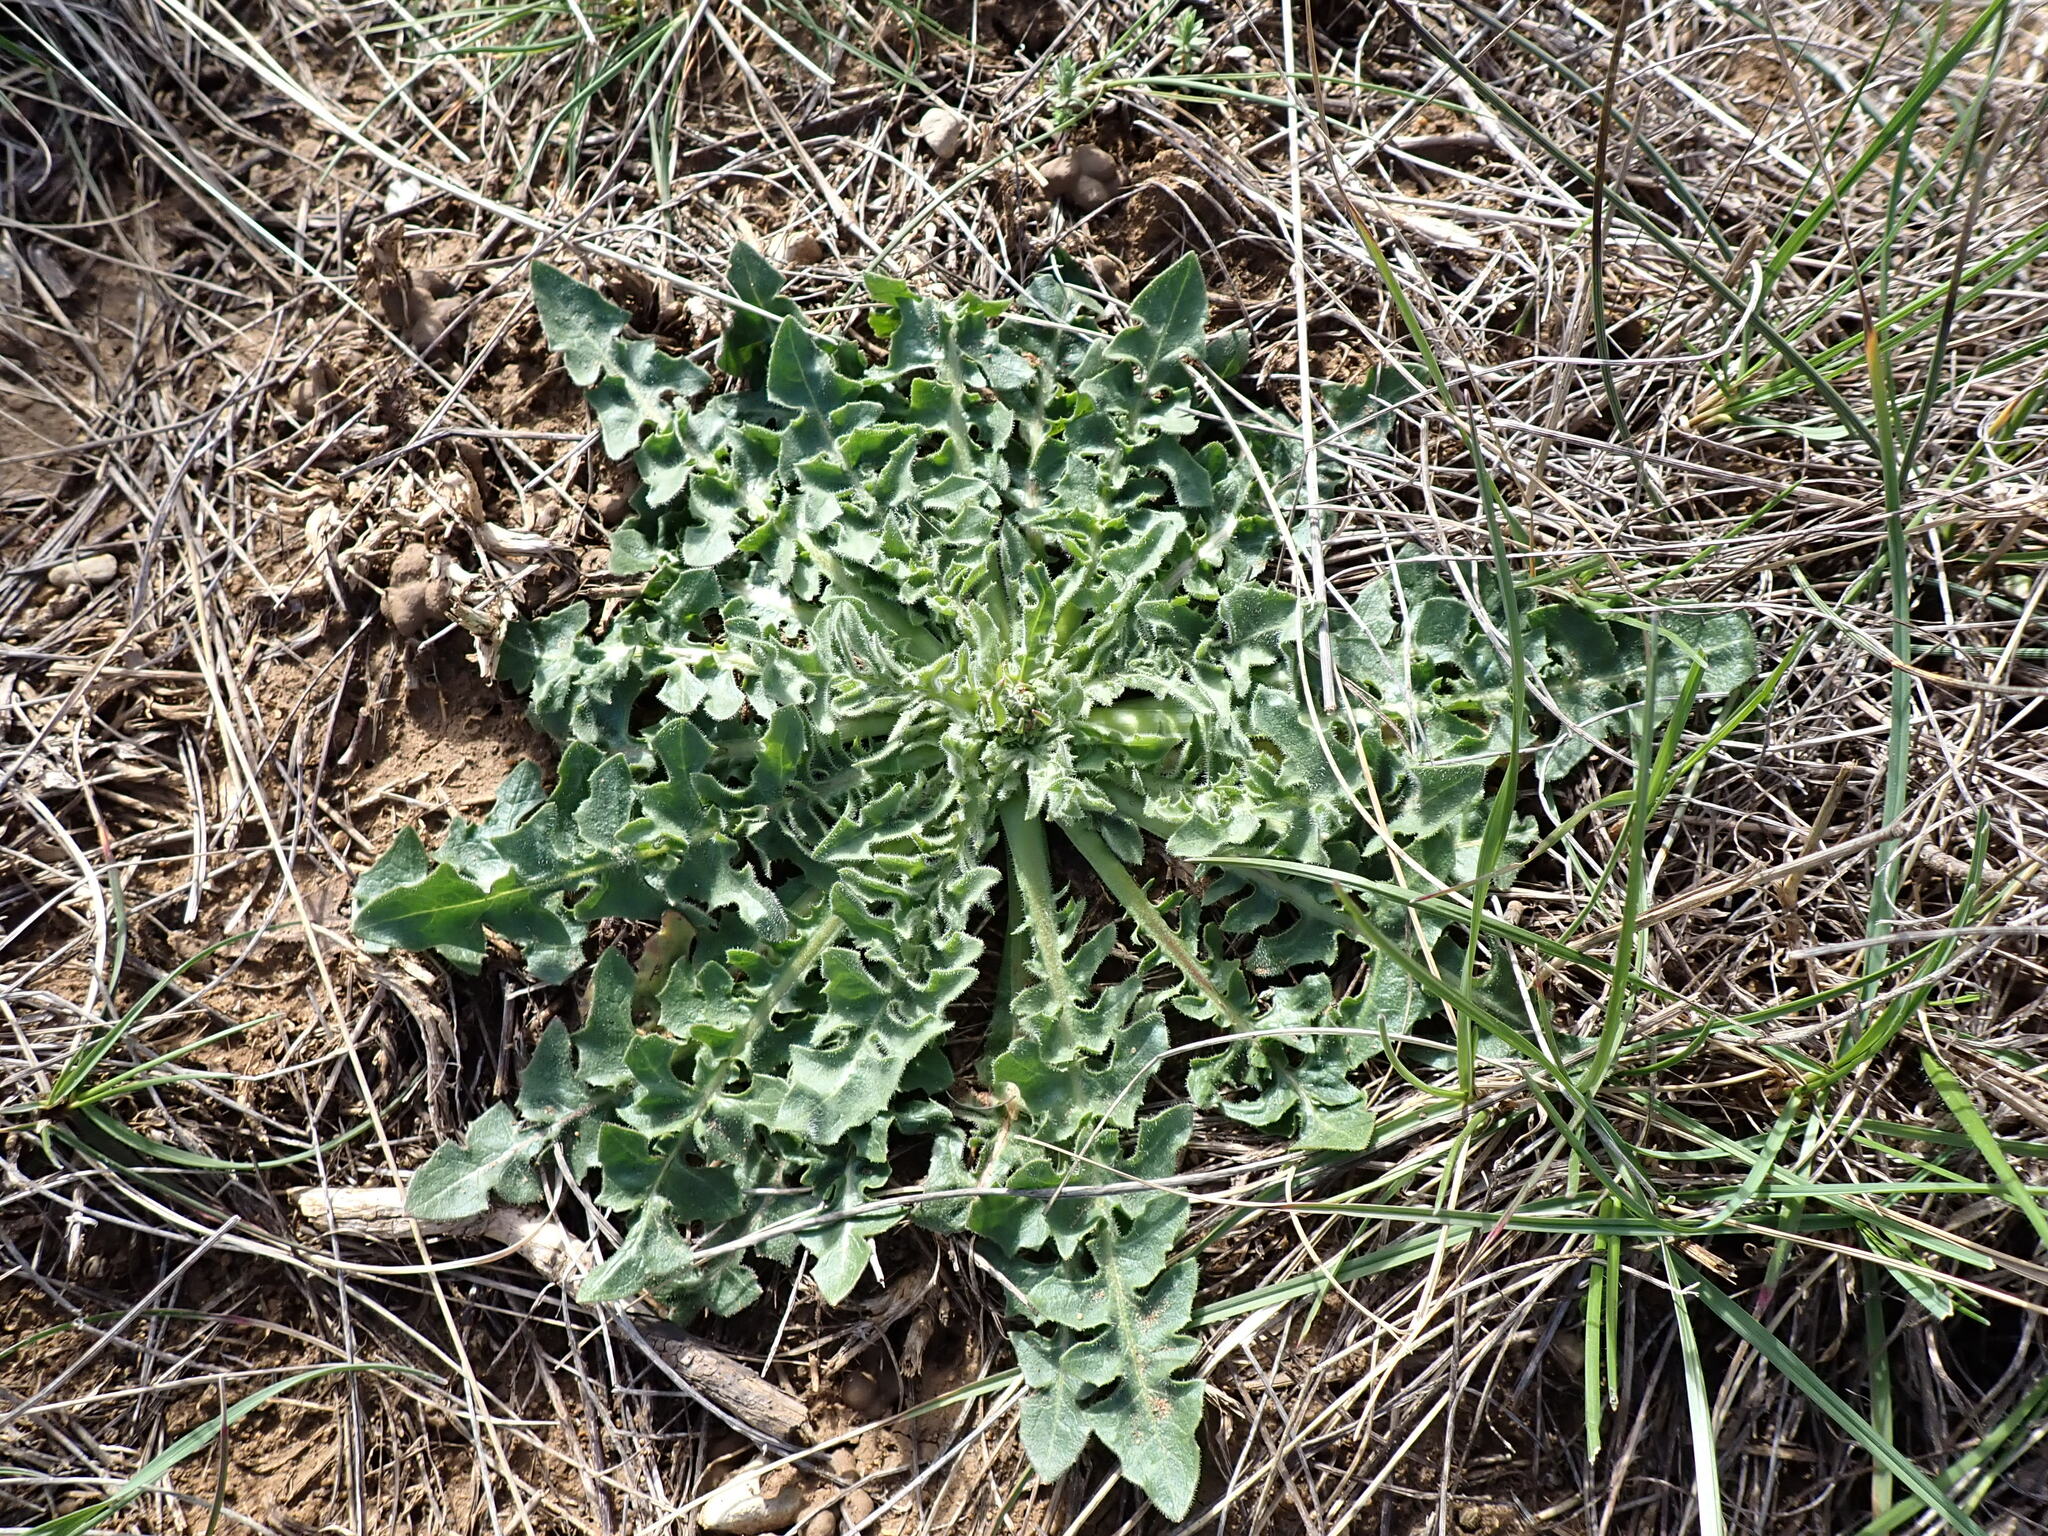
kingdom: Plantae
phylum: Tracheophyta
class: Magnoliopsida
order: Asterales
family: Asteraceae
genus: Urospermum
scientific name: Urospermum dalechampii
